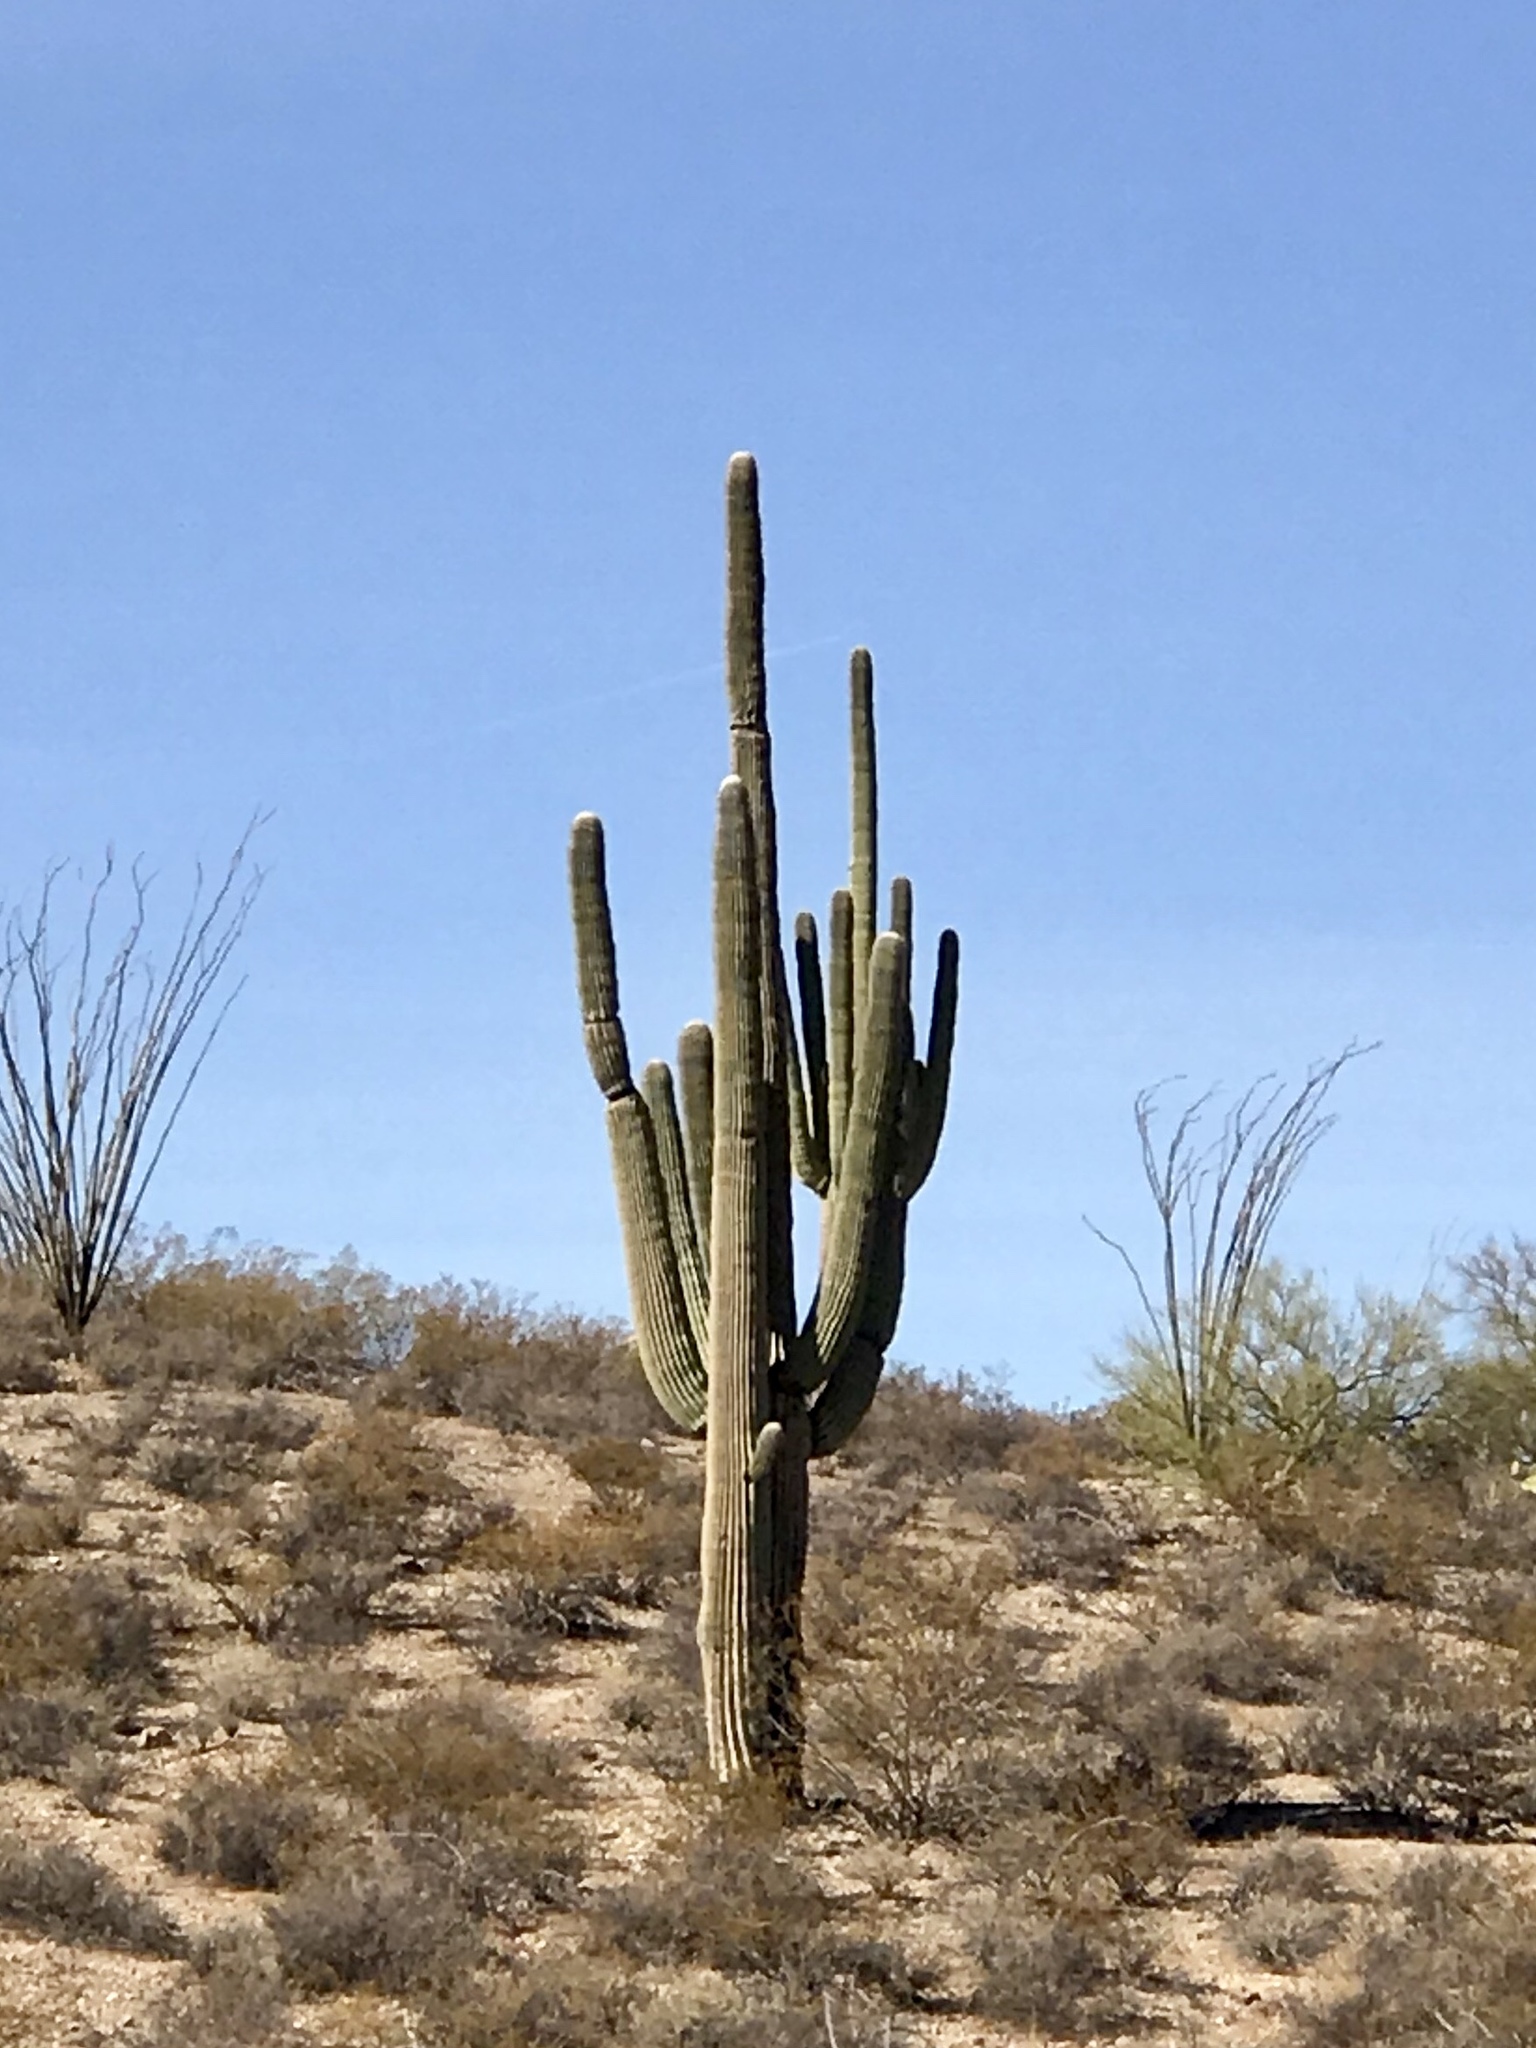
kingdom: Plantae
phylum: Tracheophyta
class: Magnoliopsida
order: Caryophyllales
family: Cactaceae
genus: Carnegiea
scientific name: Carnegiea gigantea
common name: Saguaro
